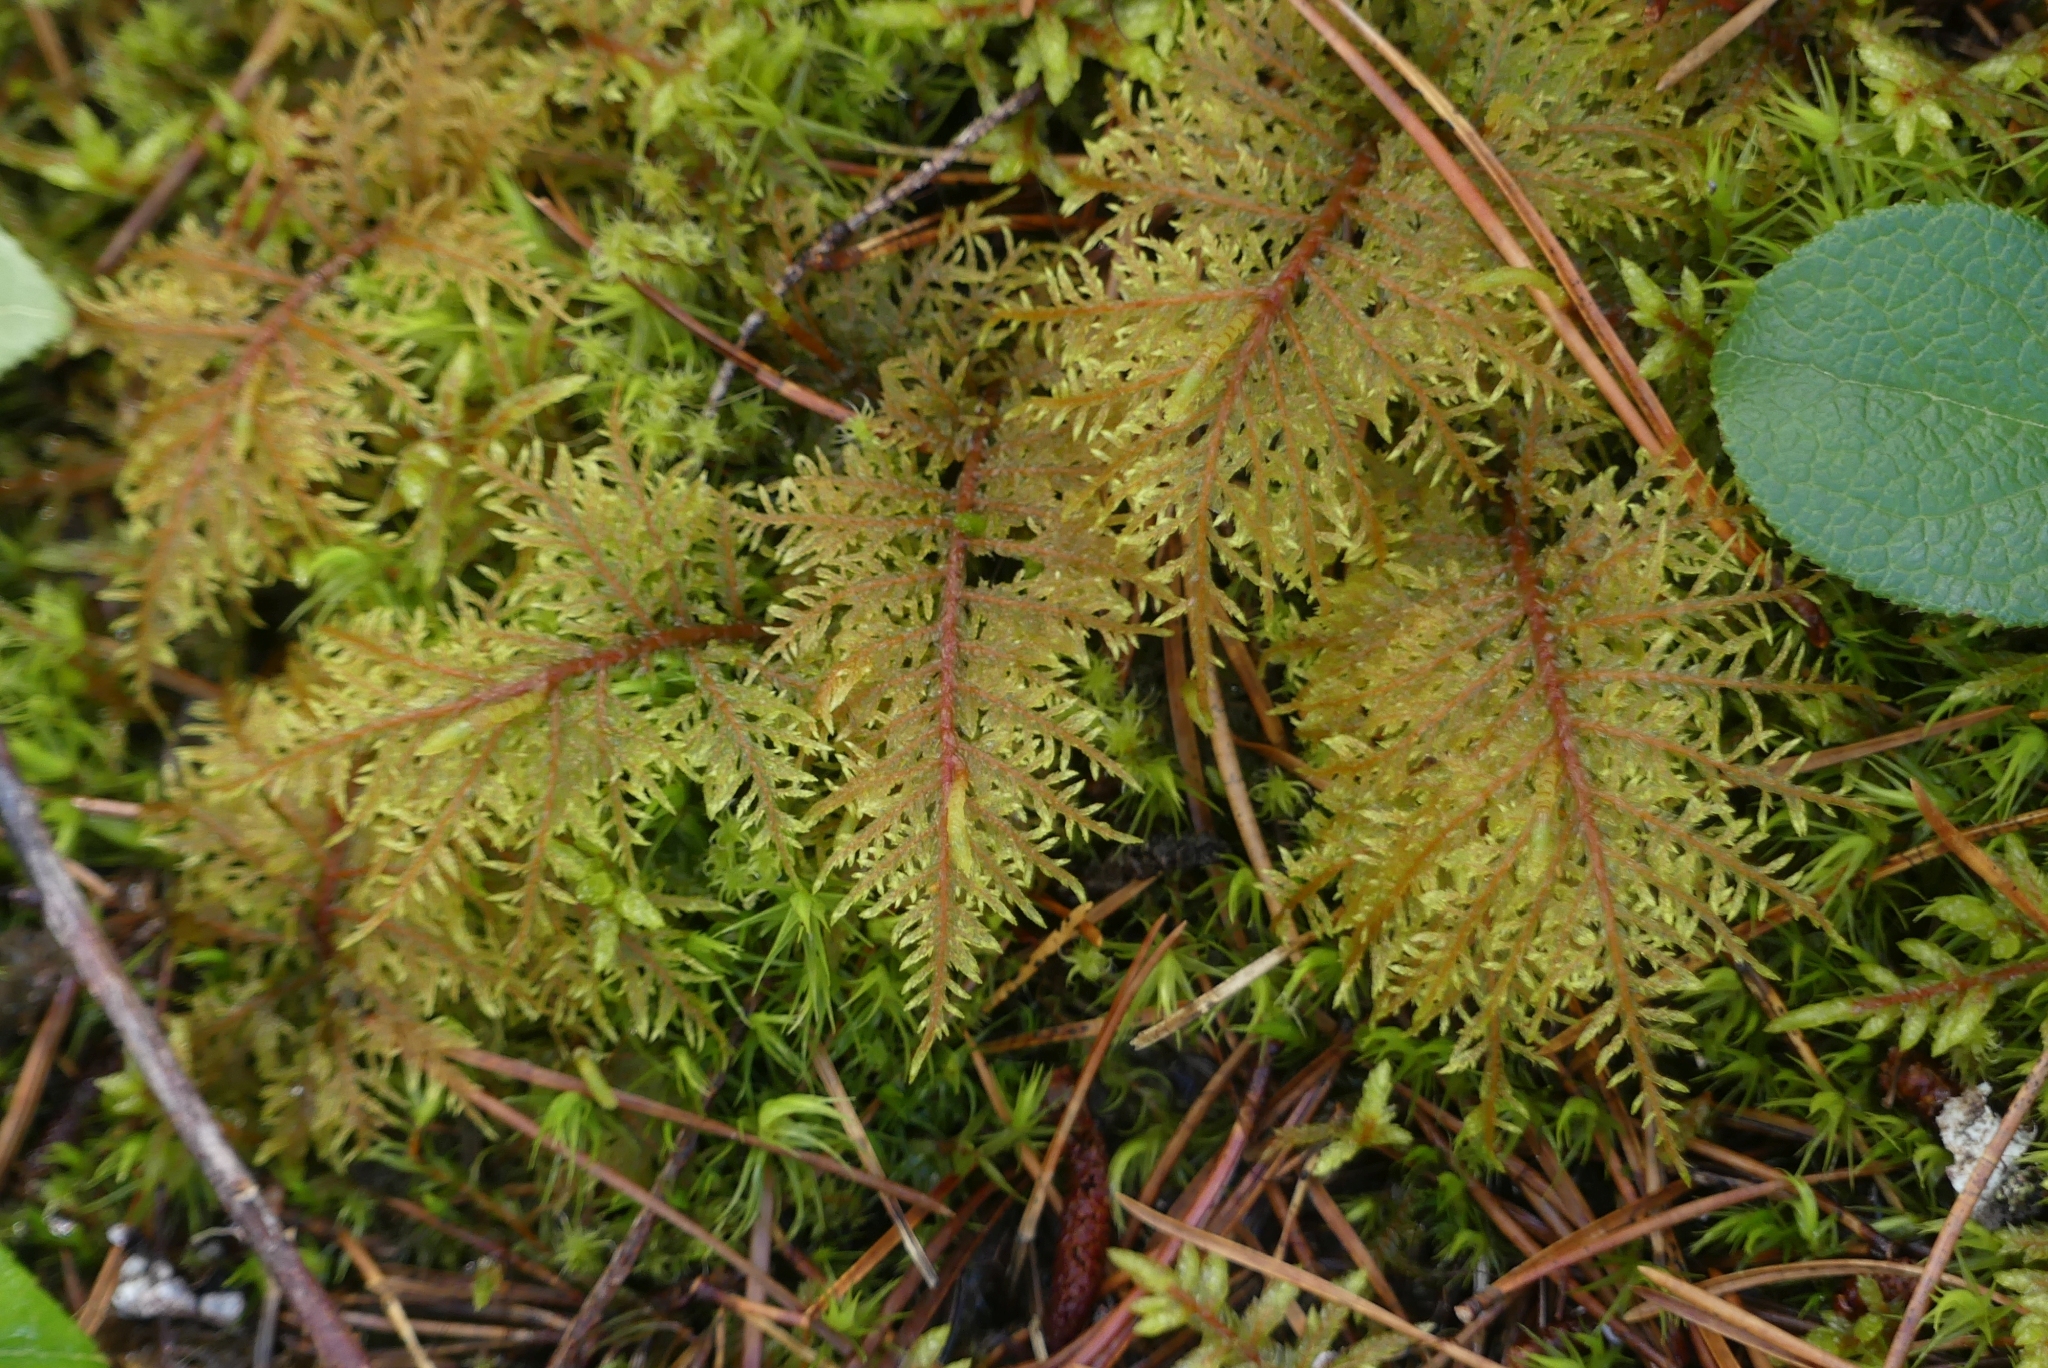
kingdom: Plantae
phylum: Bryophyta
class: Bryopsida
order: Hypnales
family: Hylocomiaceae
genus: Hylocomium
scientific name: Hylocomium splendens
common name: Stairstep moss
